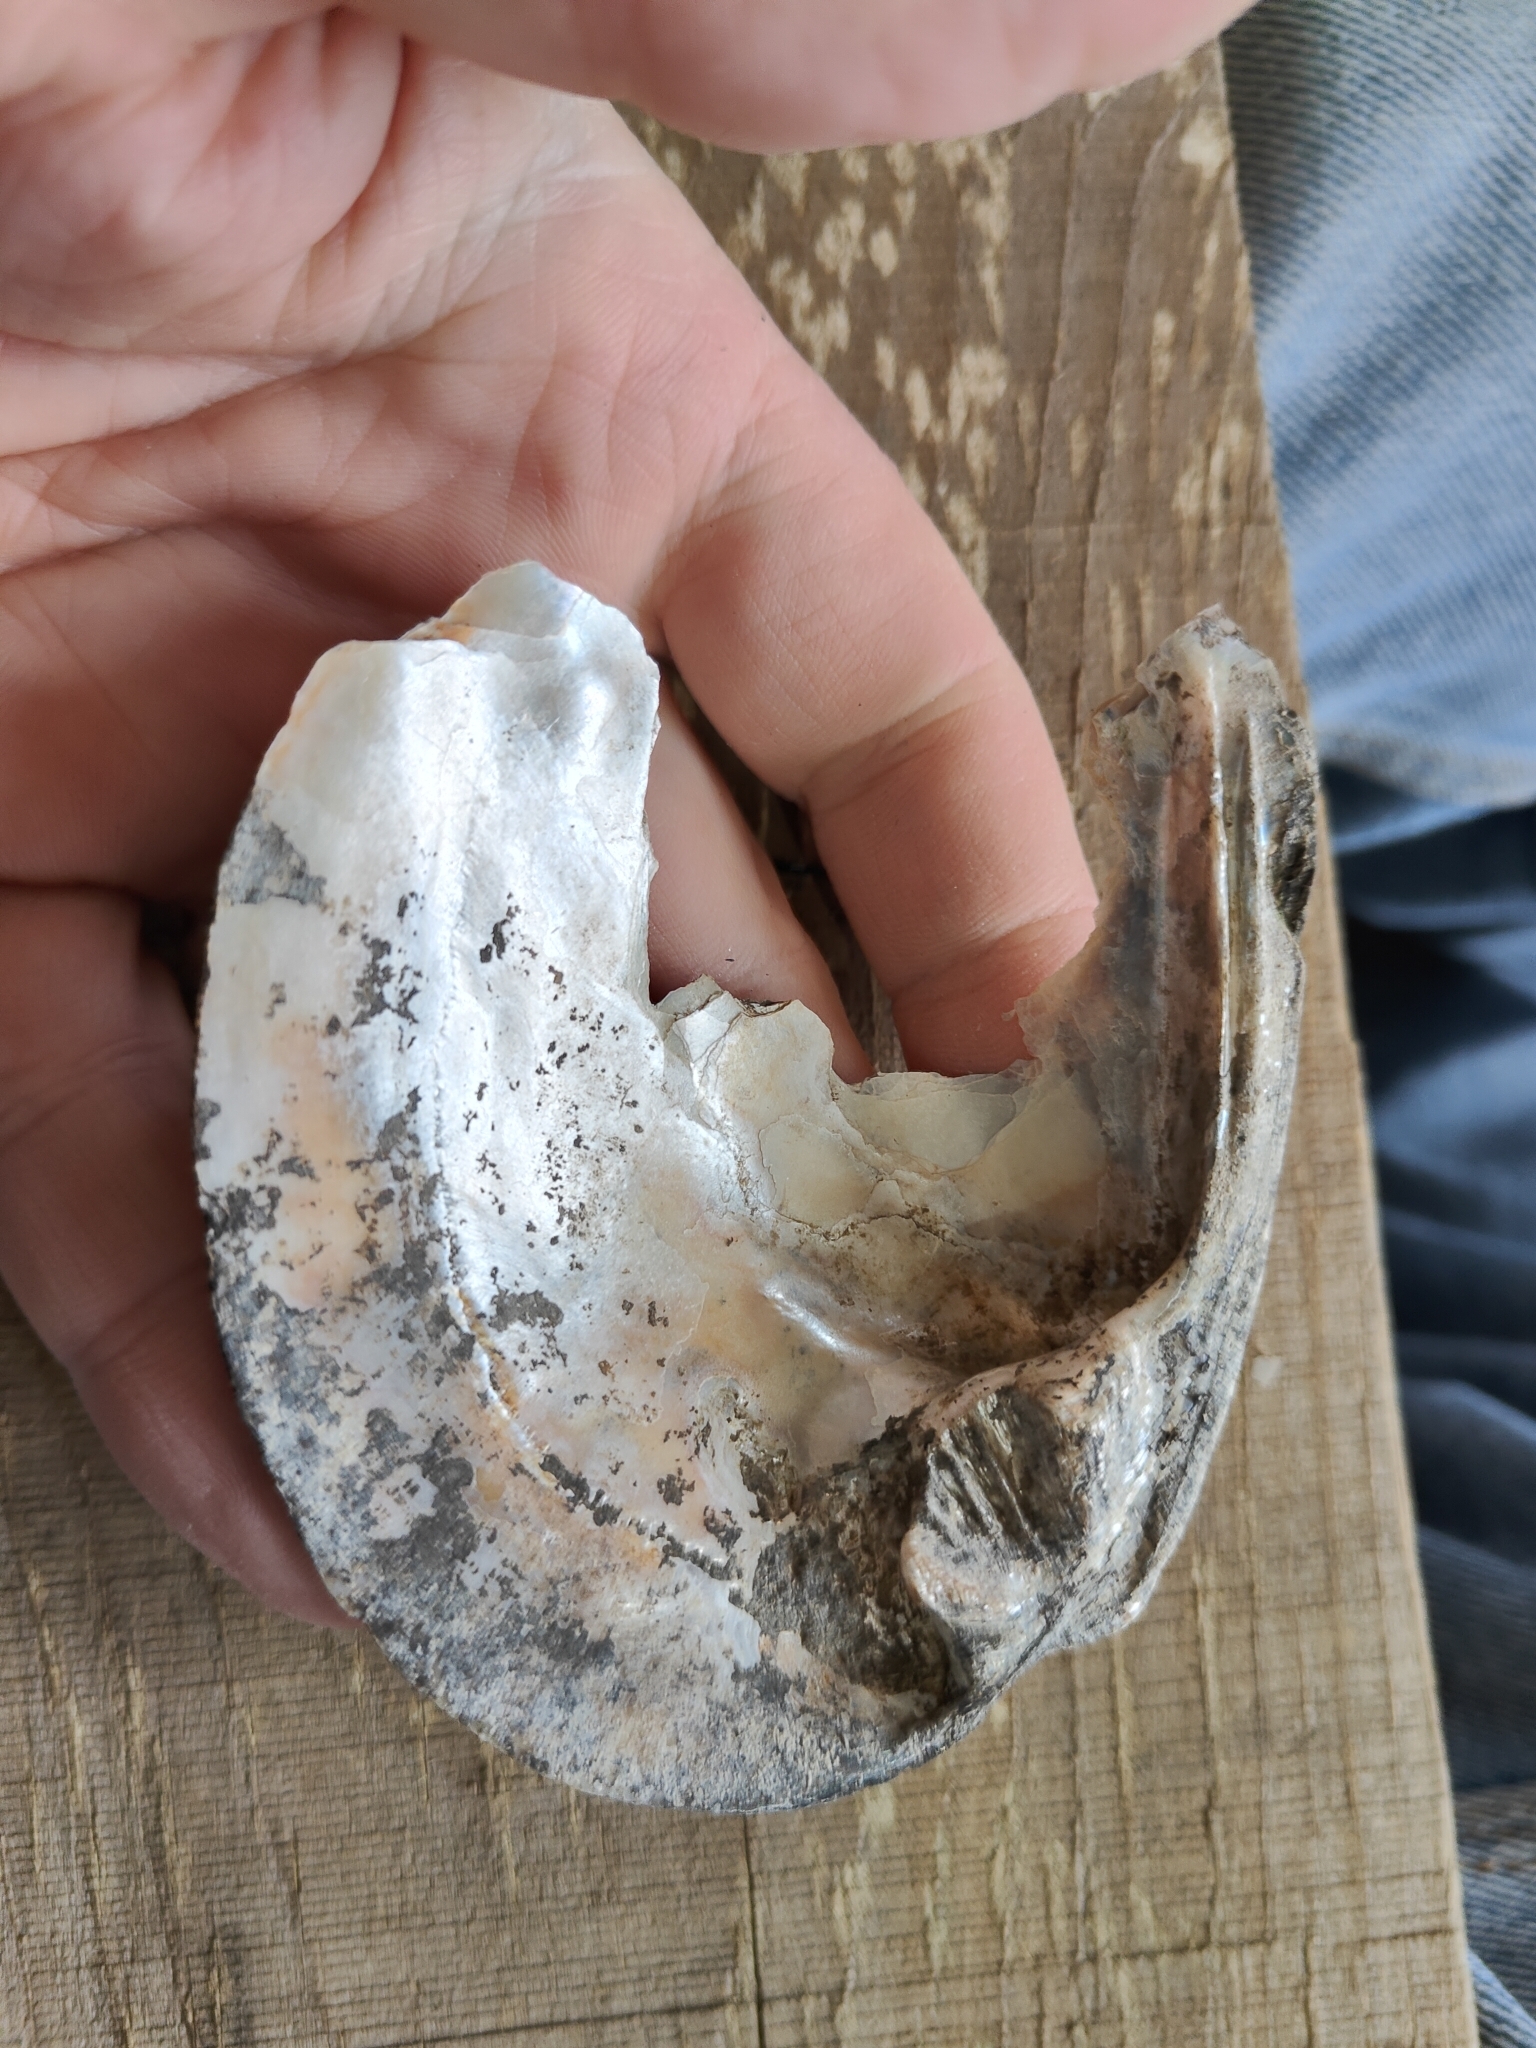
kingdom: Animalia
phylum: Mollusca
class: Bivalvia
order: Unionida
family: Unionidae
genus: Amblema
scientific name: Amblema plicata
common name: Threeridge
